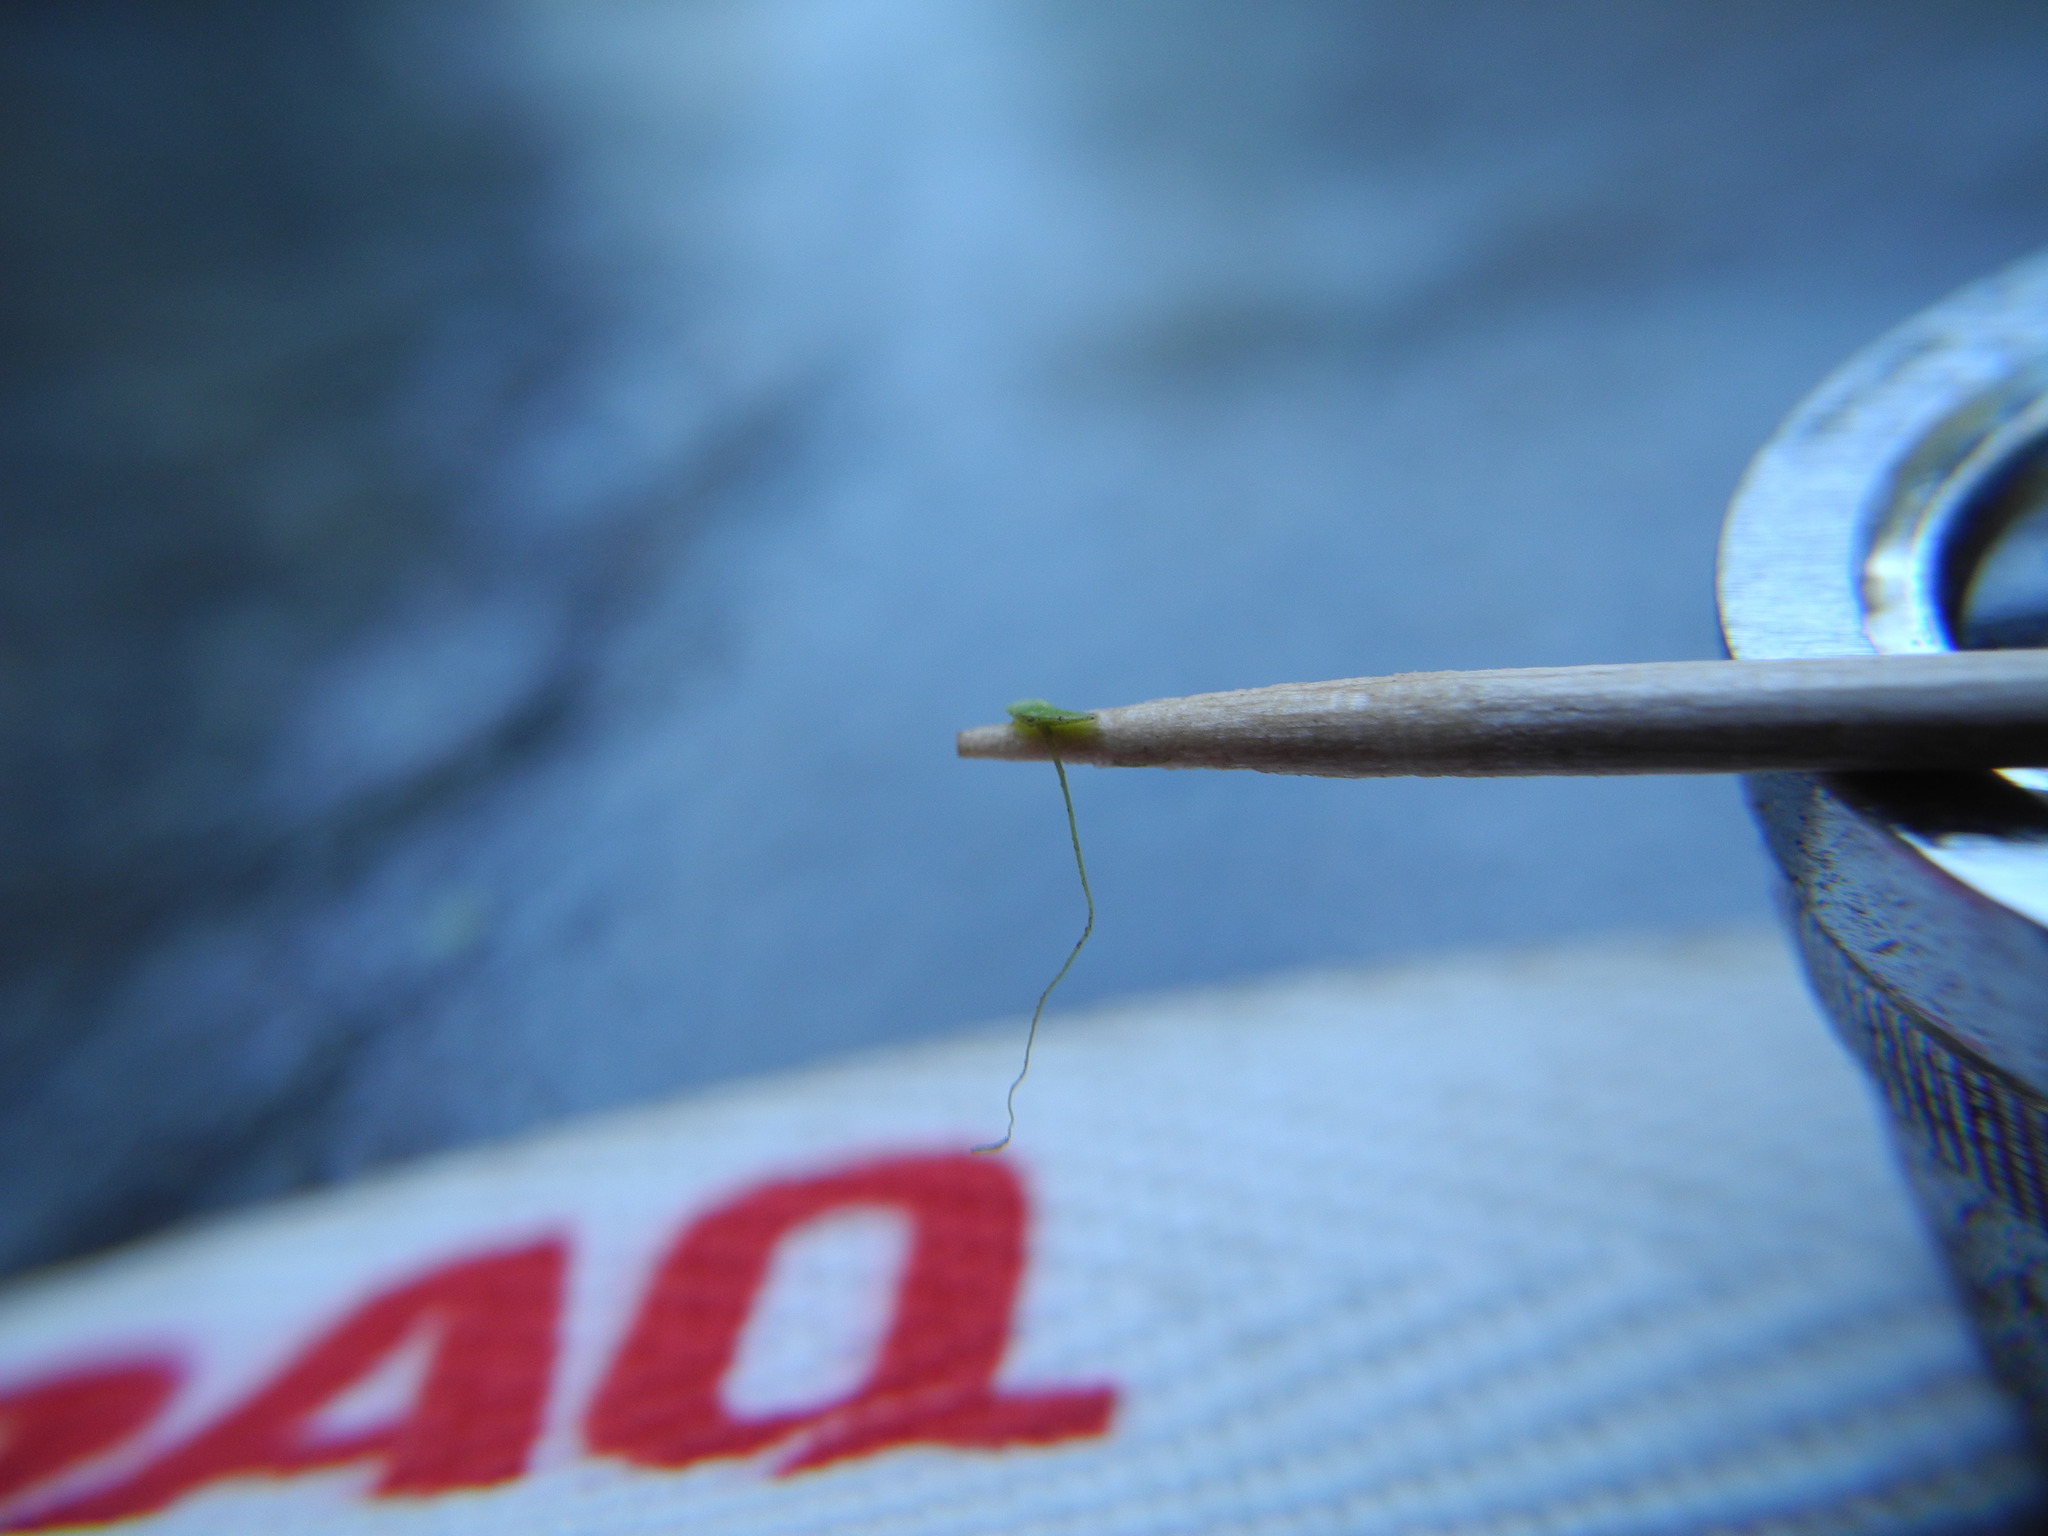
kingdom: Plantae
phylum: Tracheophyta
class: Liliopsida
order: Alismatales
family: Araceae
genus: Lemna
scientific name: Lemna minor
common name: Common duckweed
